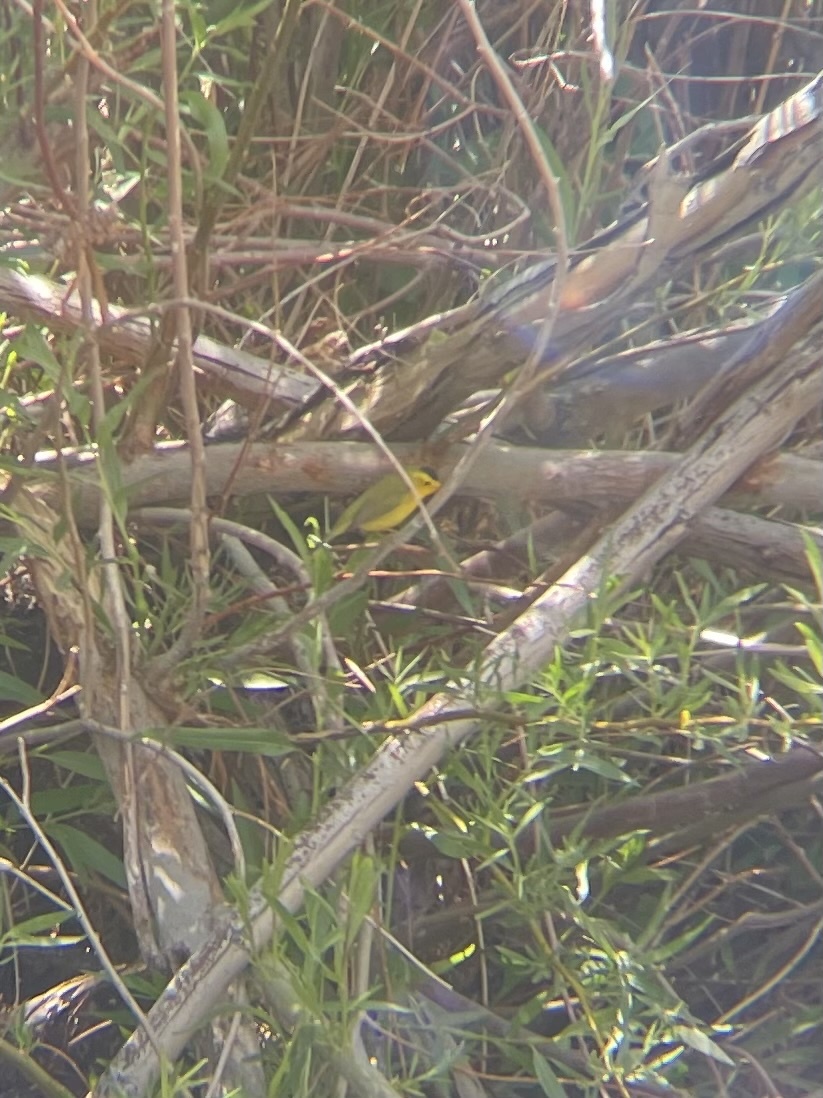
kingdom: Animalia
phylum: Chordata
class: Aves
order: Passeriformes
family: Parulidae
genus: Cardellina
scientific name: Cardellina pusilla
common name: Wilson's warbler
